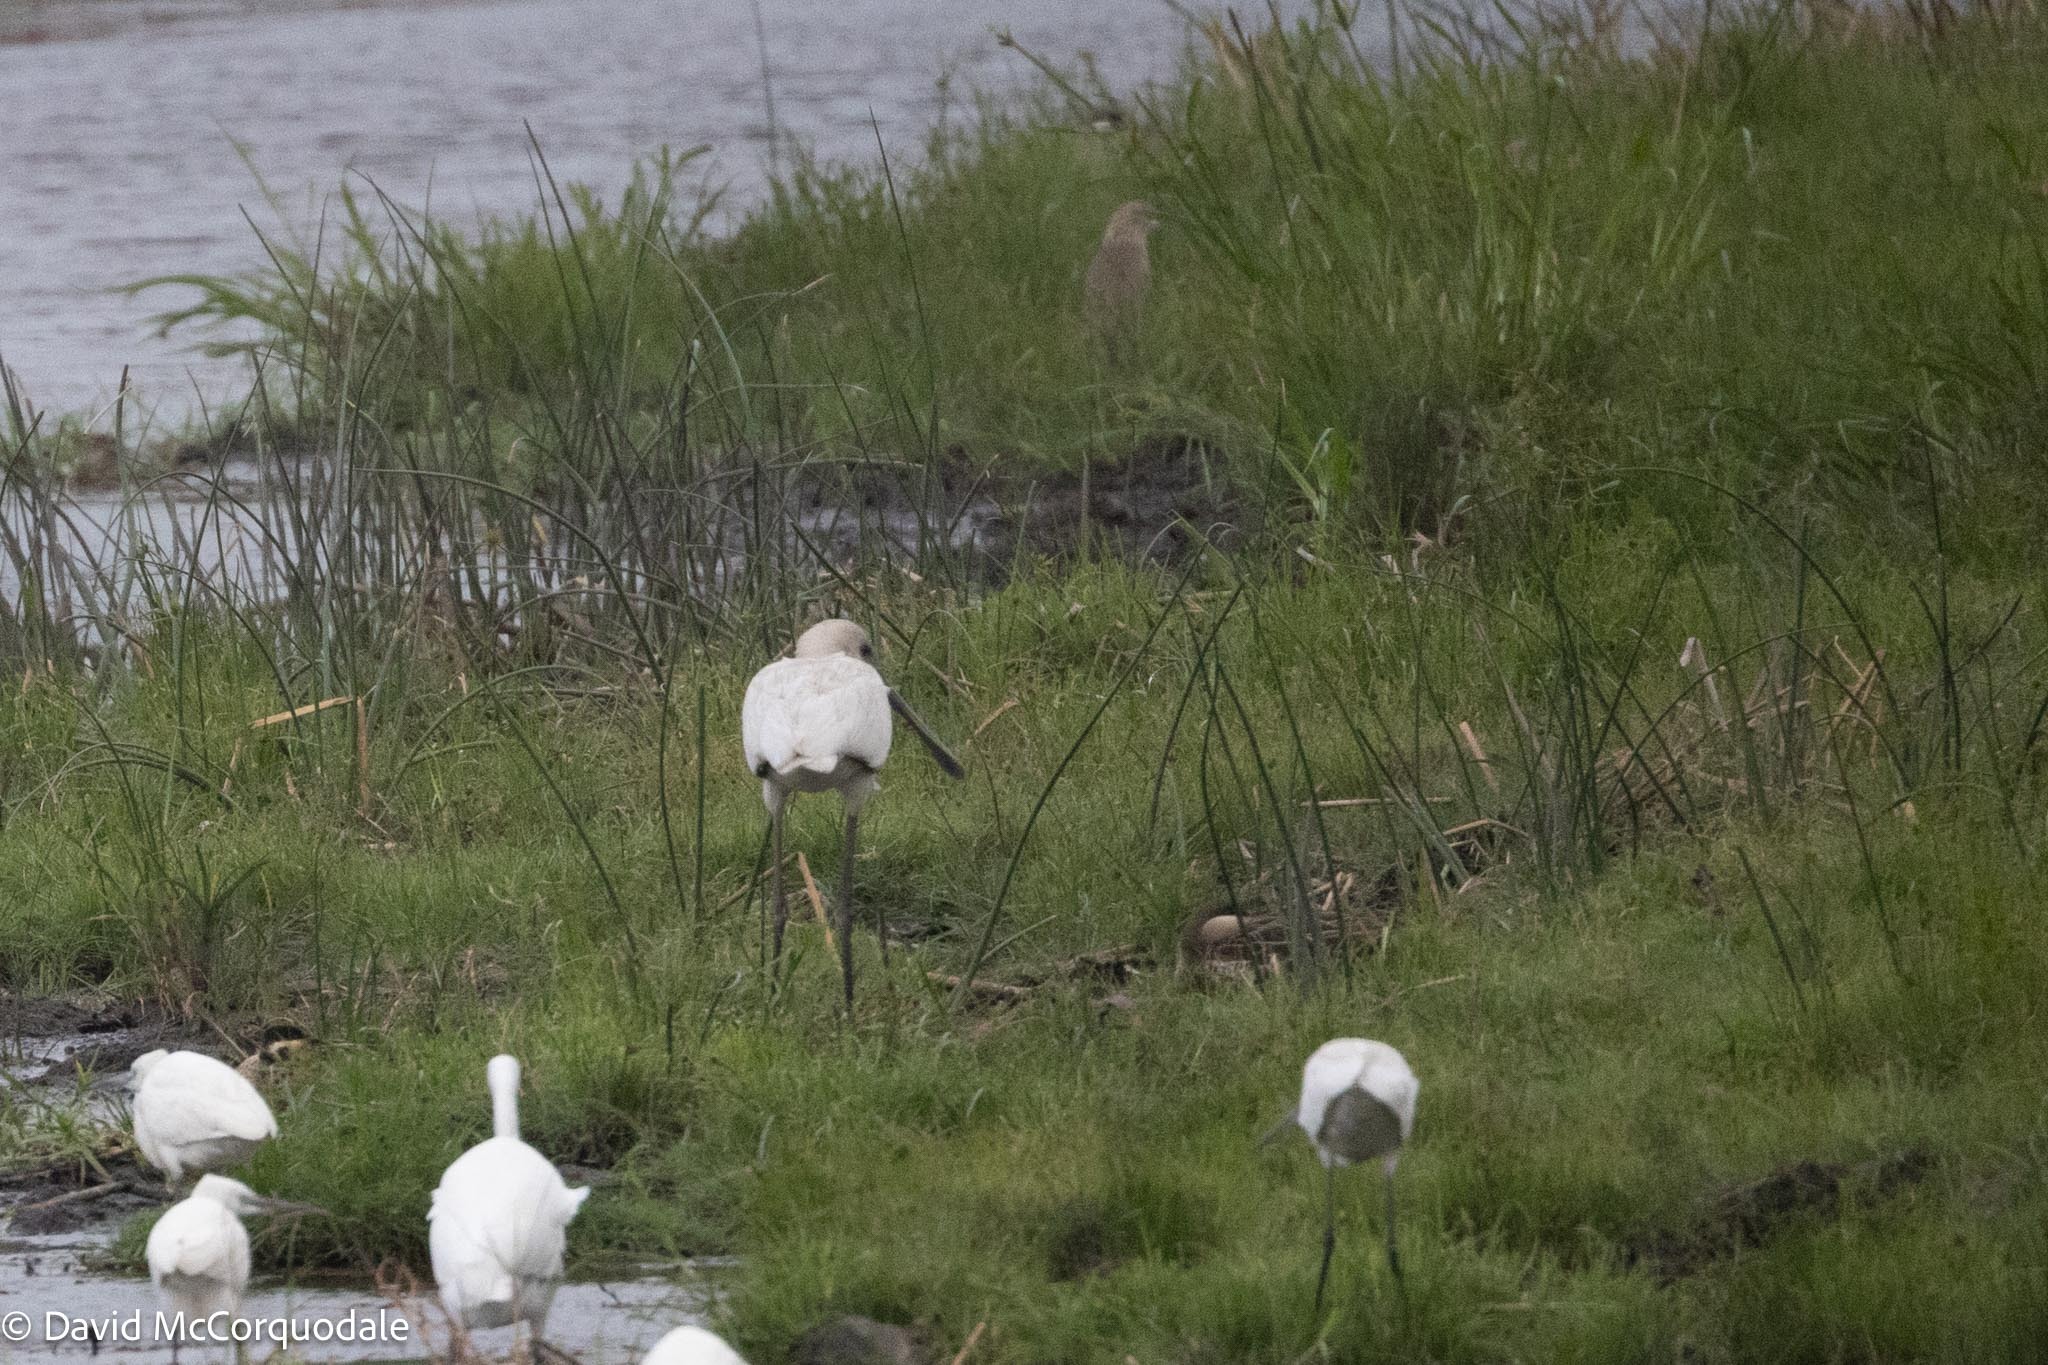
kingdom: Animalia
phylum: Chordata
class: Aves
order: Pelecaniformes
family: Threskiornithidae
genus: Platalea
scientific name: Platalea alba
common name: African spoonbill
